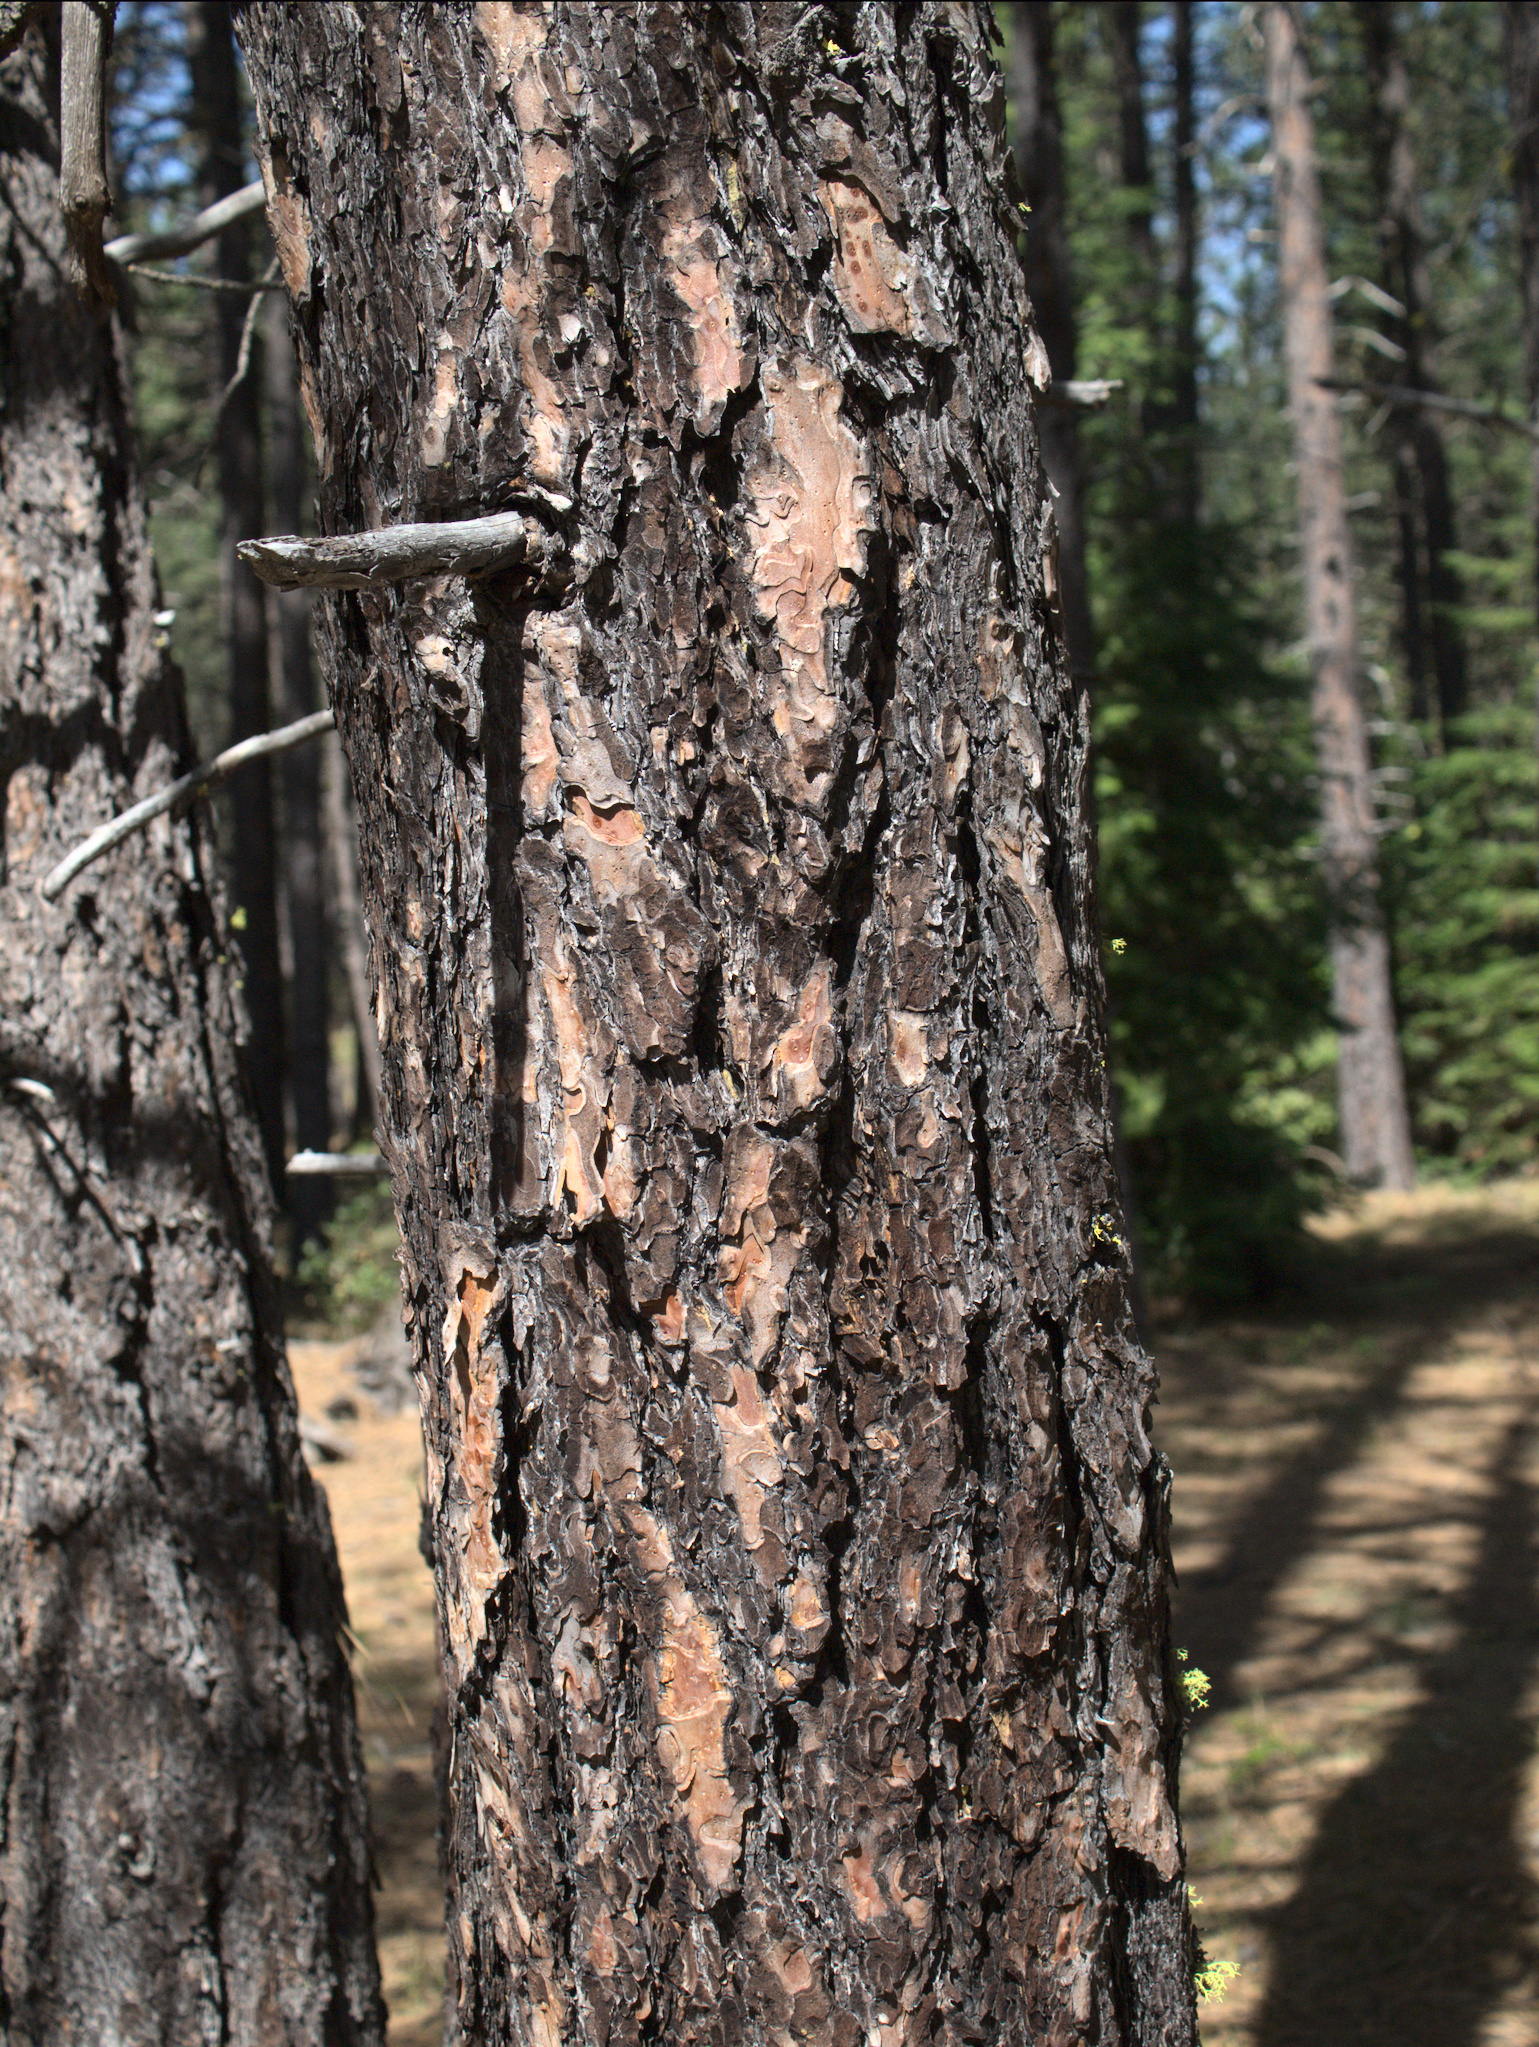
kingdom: Plantae
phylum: Tracheophyta
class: Pinopsida
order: Pinales
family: Pinaceae
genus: Pinus
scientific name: Pinus ponderosa
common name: Western yellow-pine
